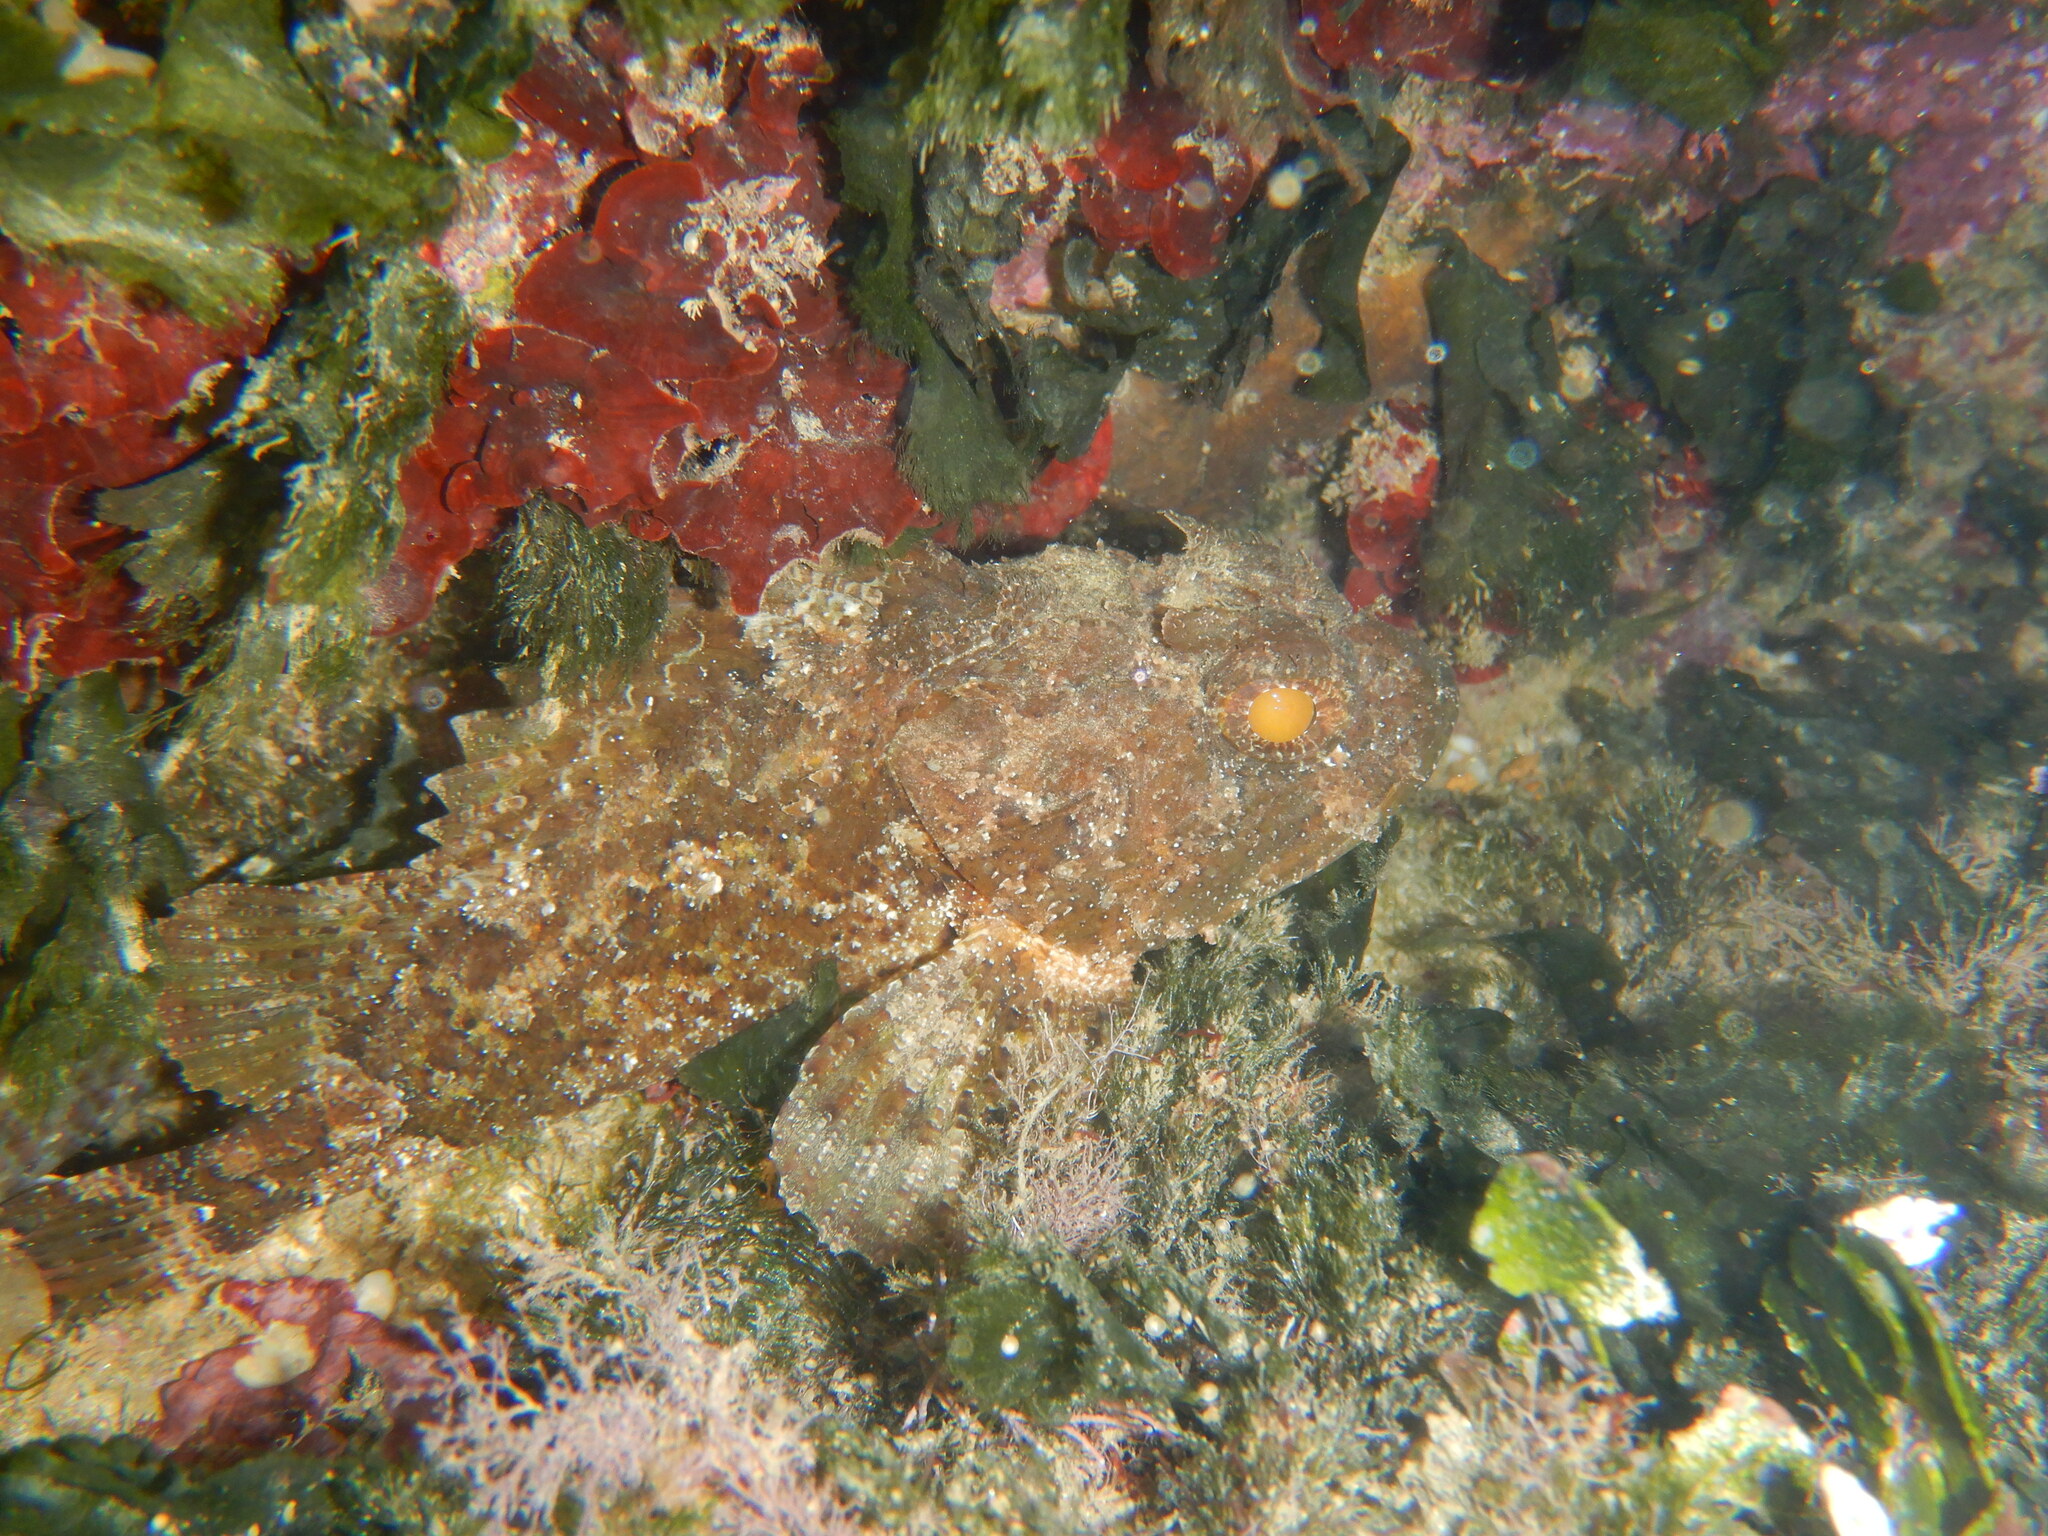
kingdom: Animalia
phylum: Chordata
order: Scorpaeniformes
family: Scorpaenidae
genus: Scorpaena
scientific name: Scorpaena porcus
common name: Black scorpionfish
